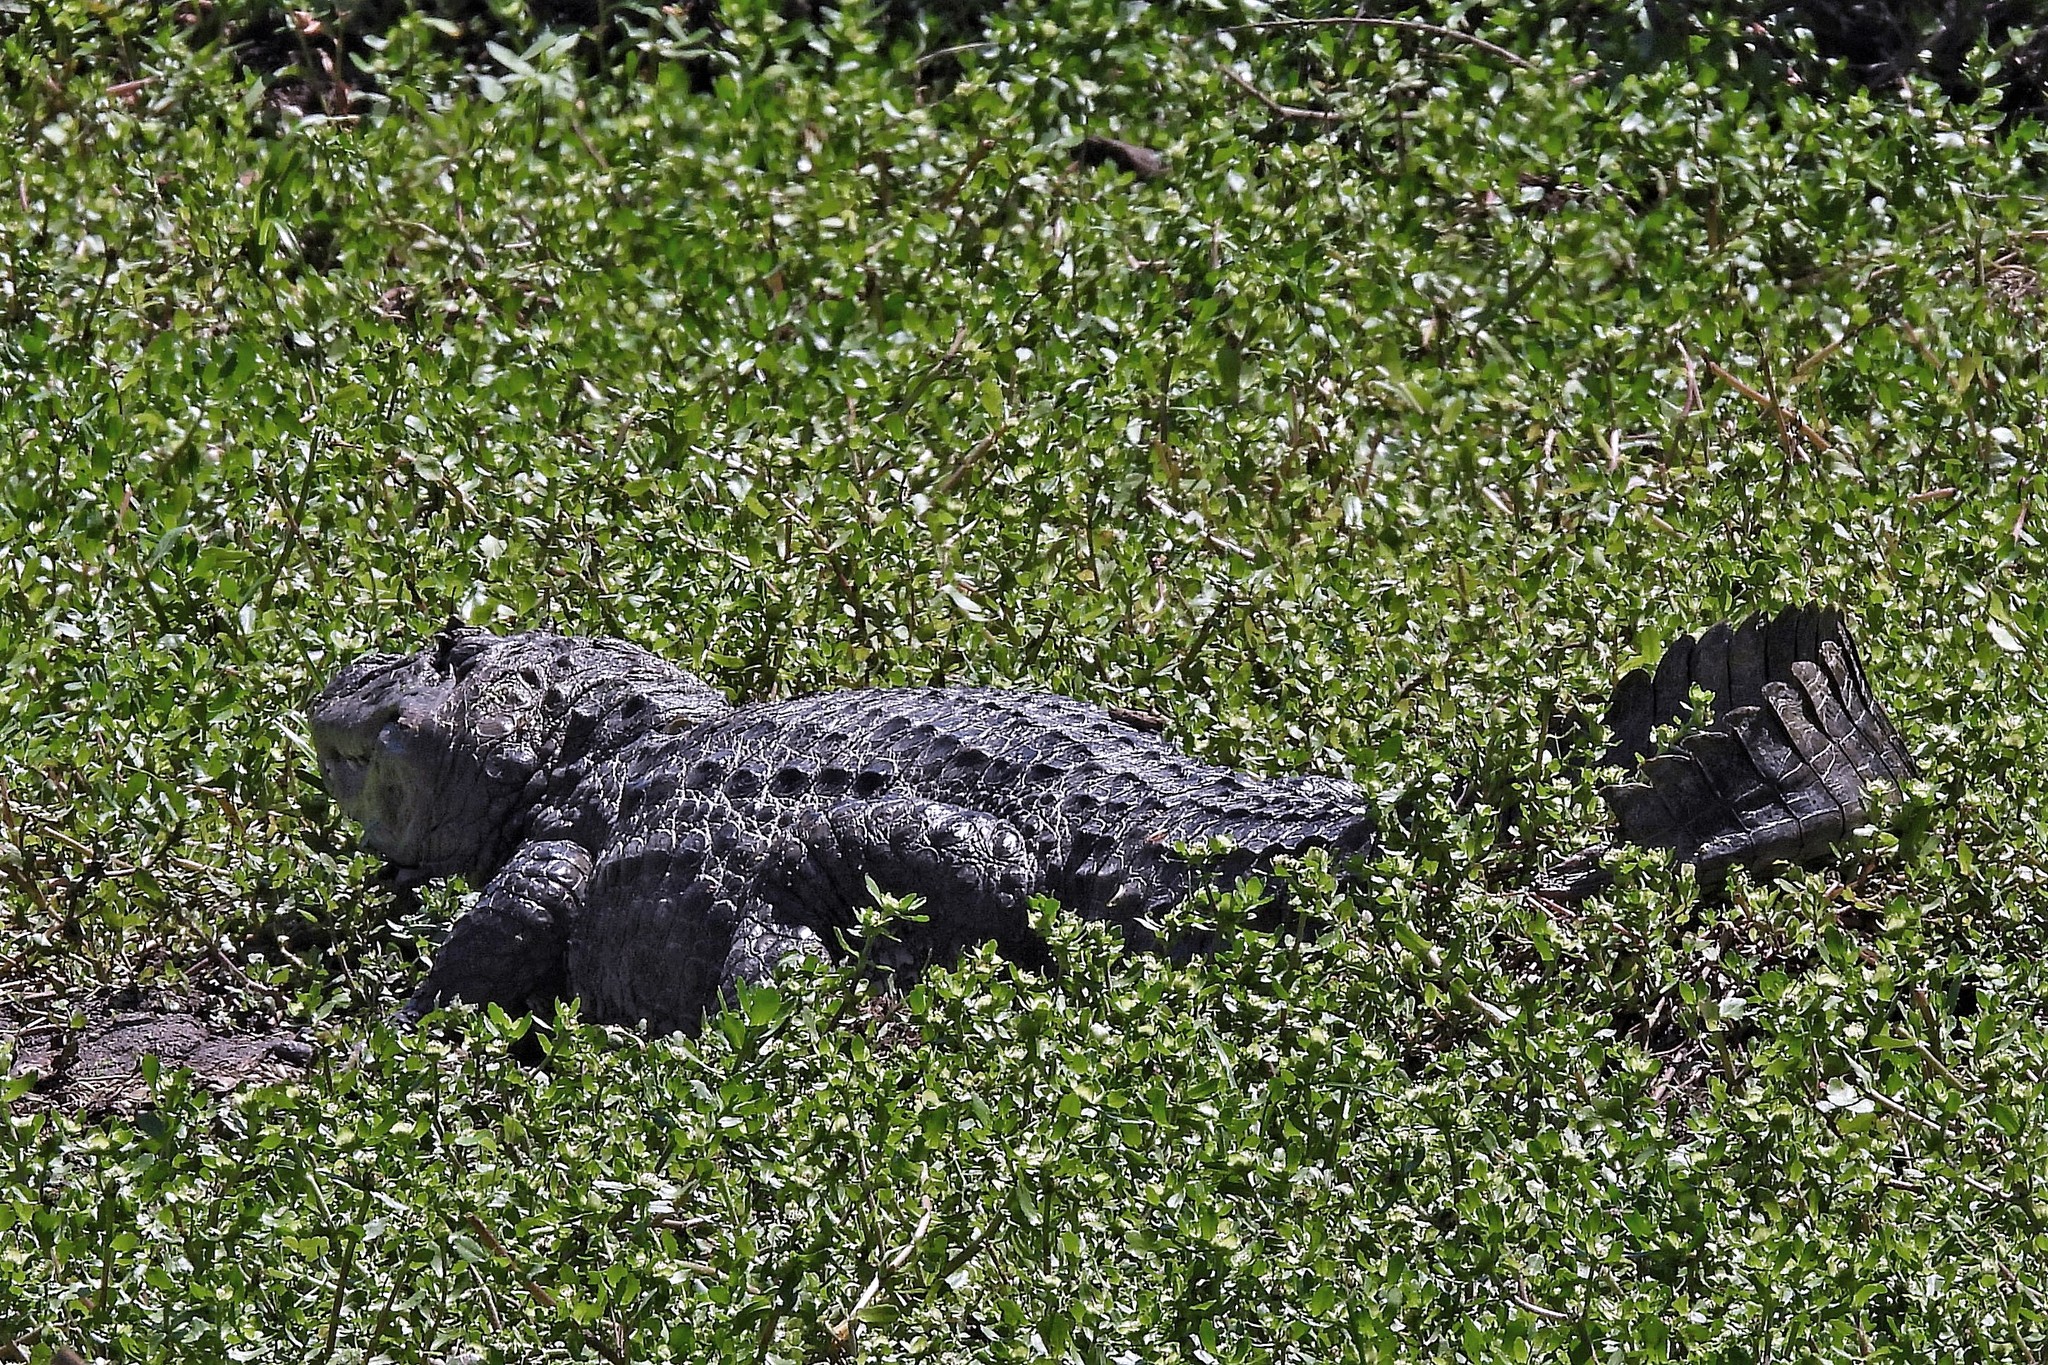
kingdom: Animalia
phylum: Chordata
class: Crocodylia
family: Alligatoridae
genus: Caiman
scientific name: Caiman latirostris
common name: Broad-snouted caiman
